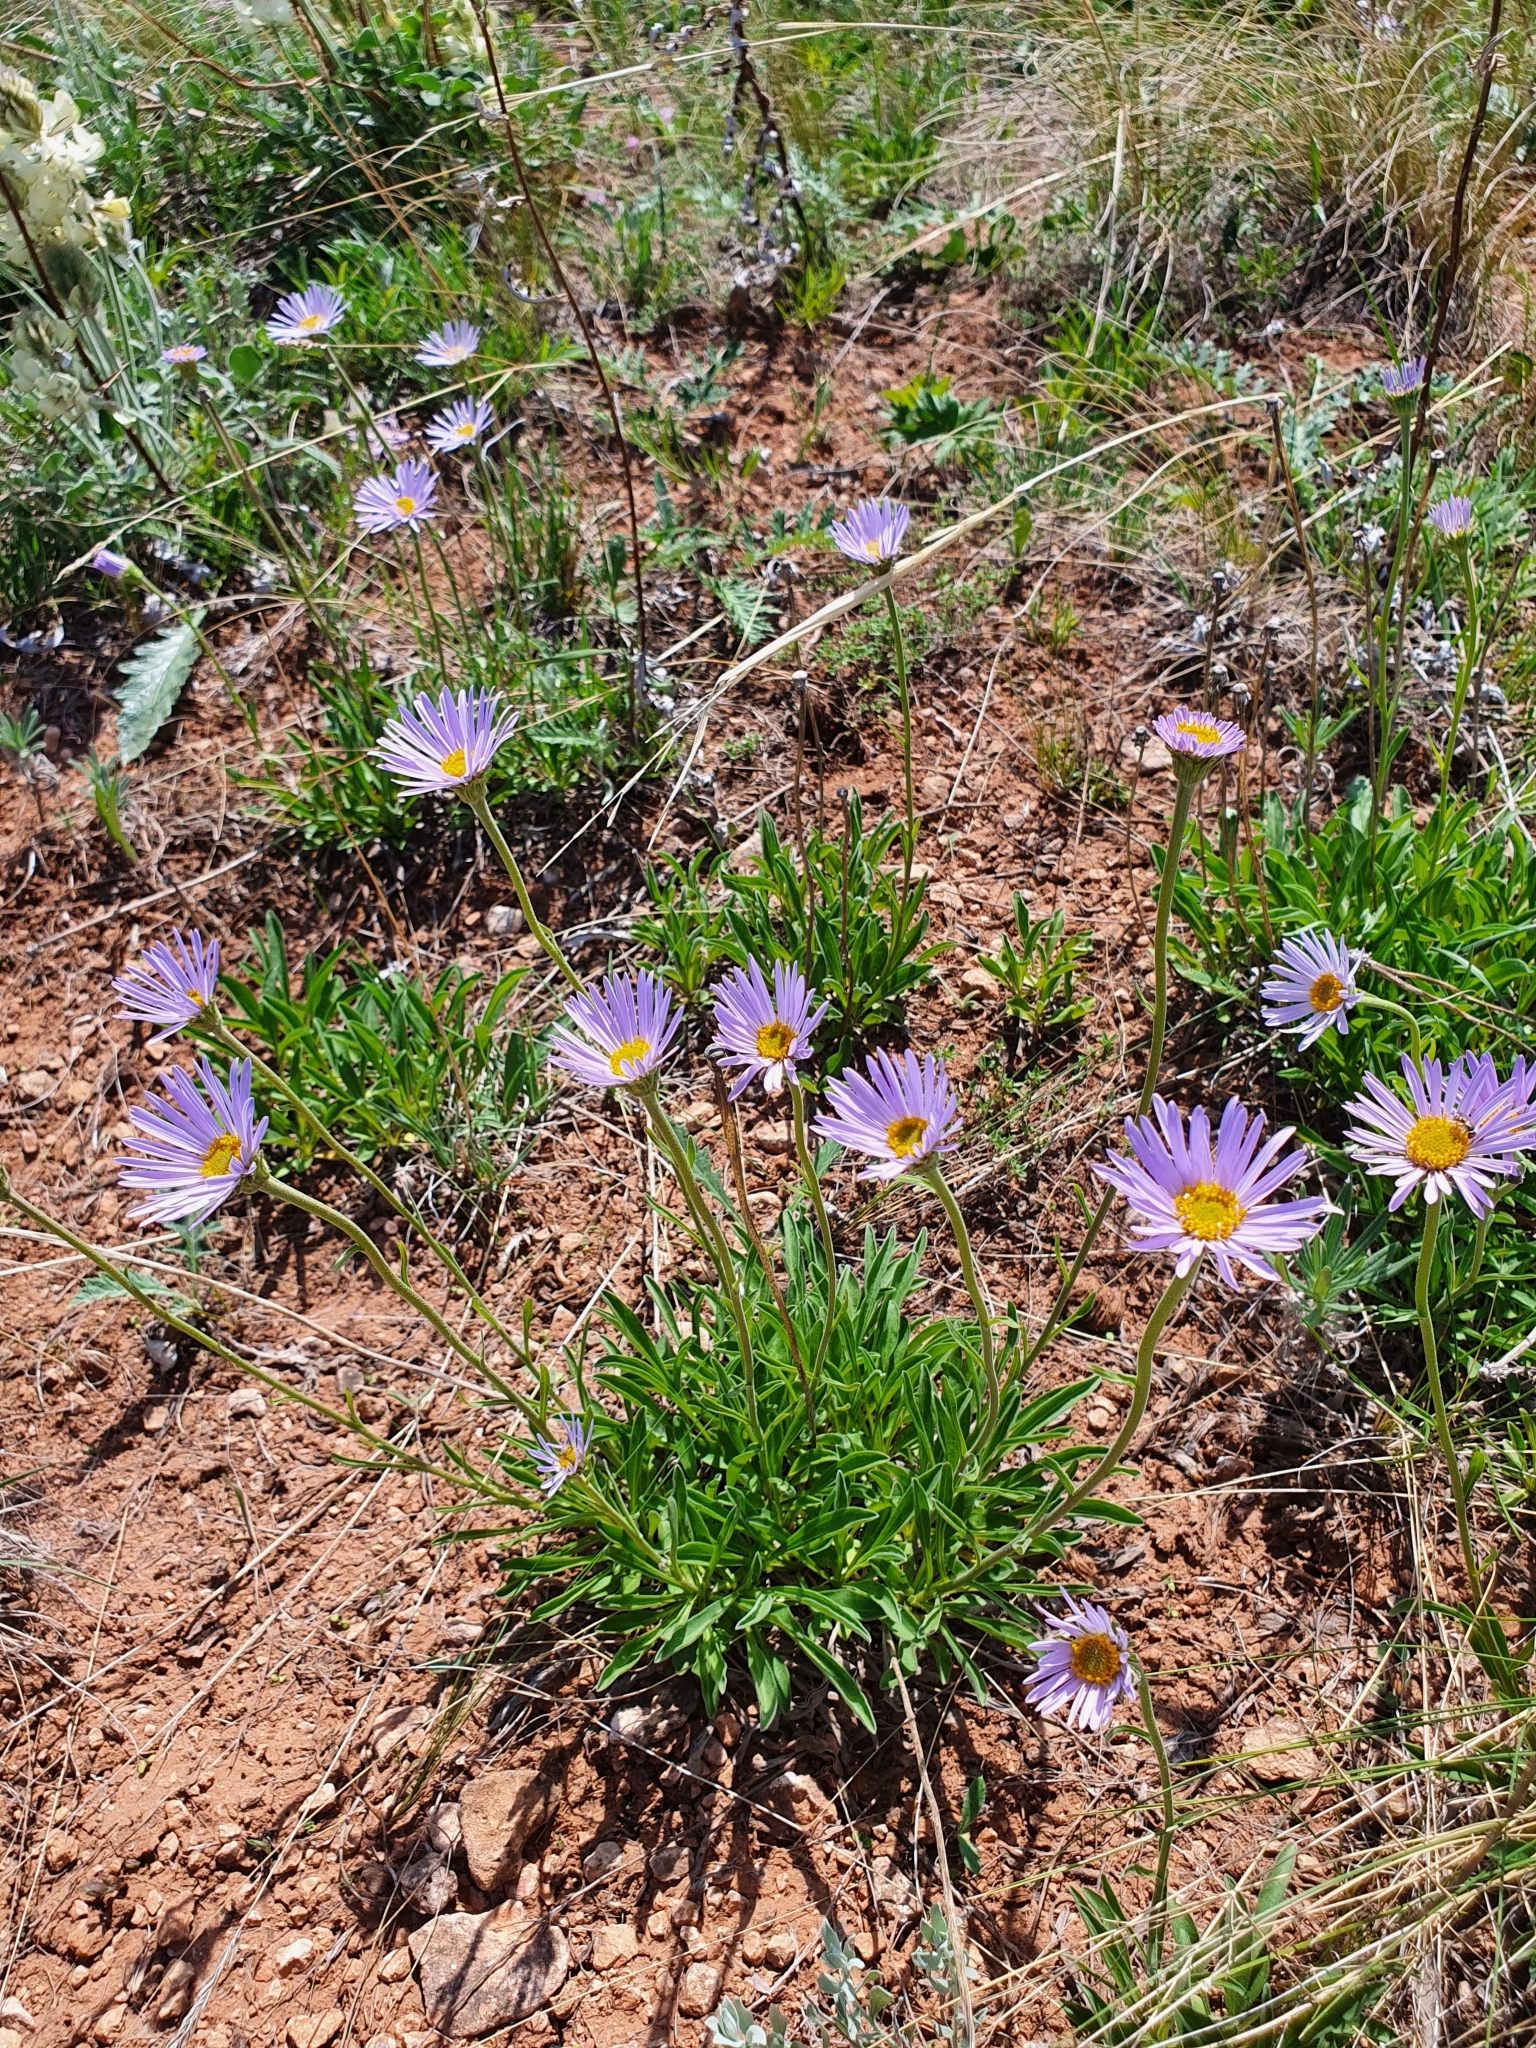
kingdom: Plantae
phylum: Tracheophyta
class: Magnoliopsida
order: Asterales
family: Asteraceae
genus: Aster
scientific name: Aster alpinus
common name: Alpine aster
